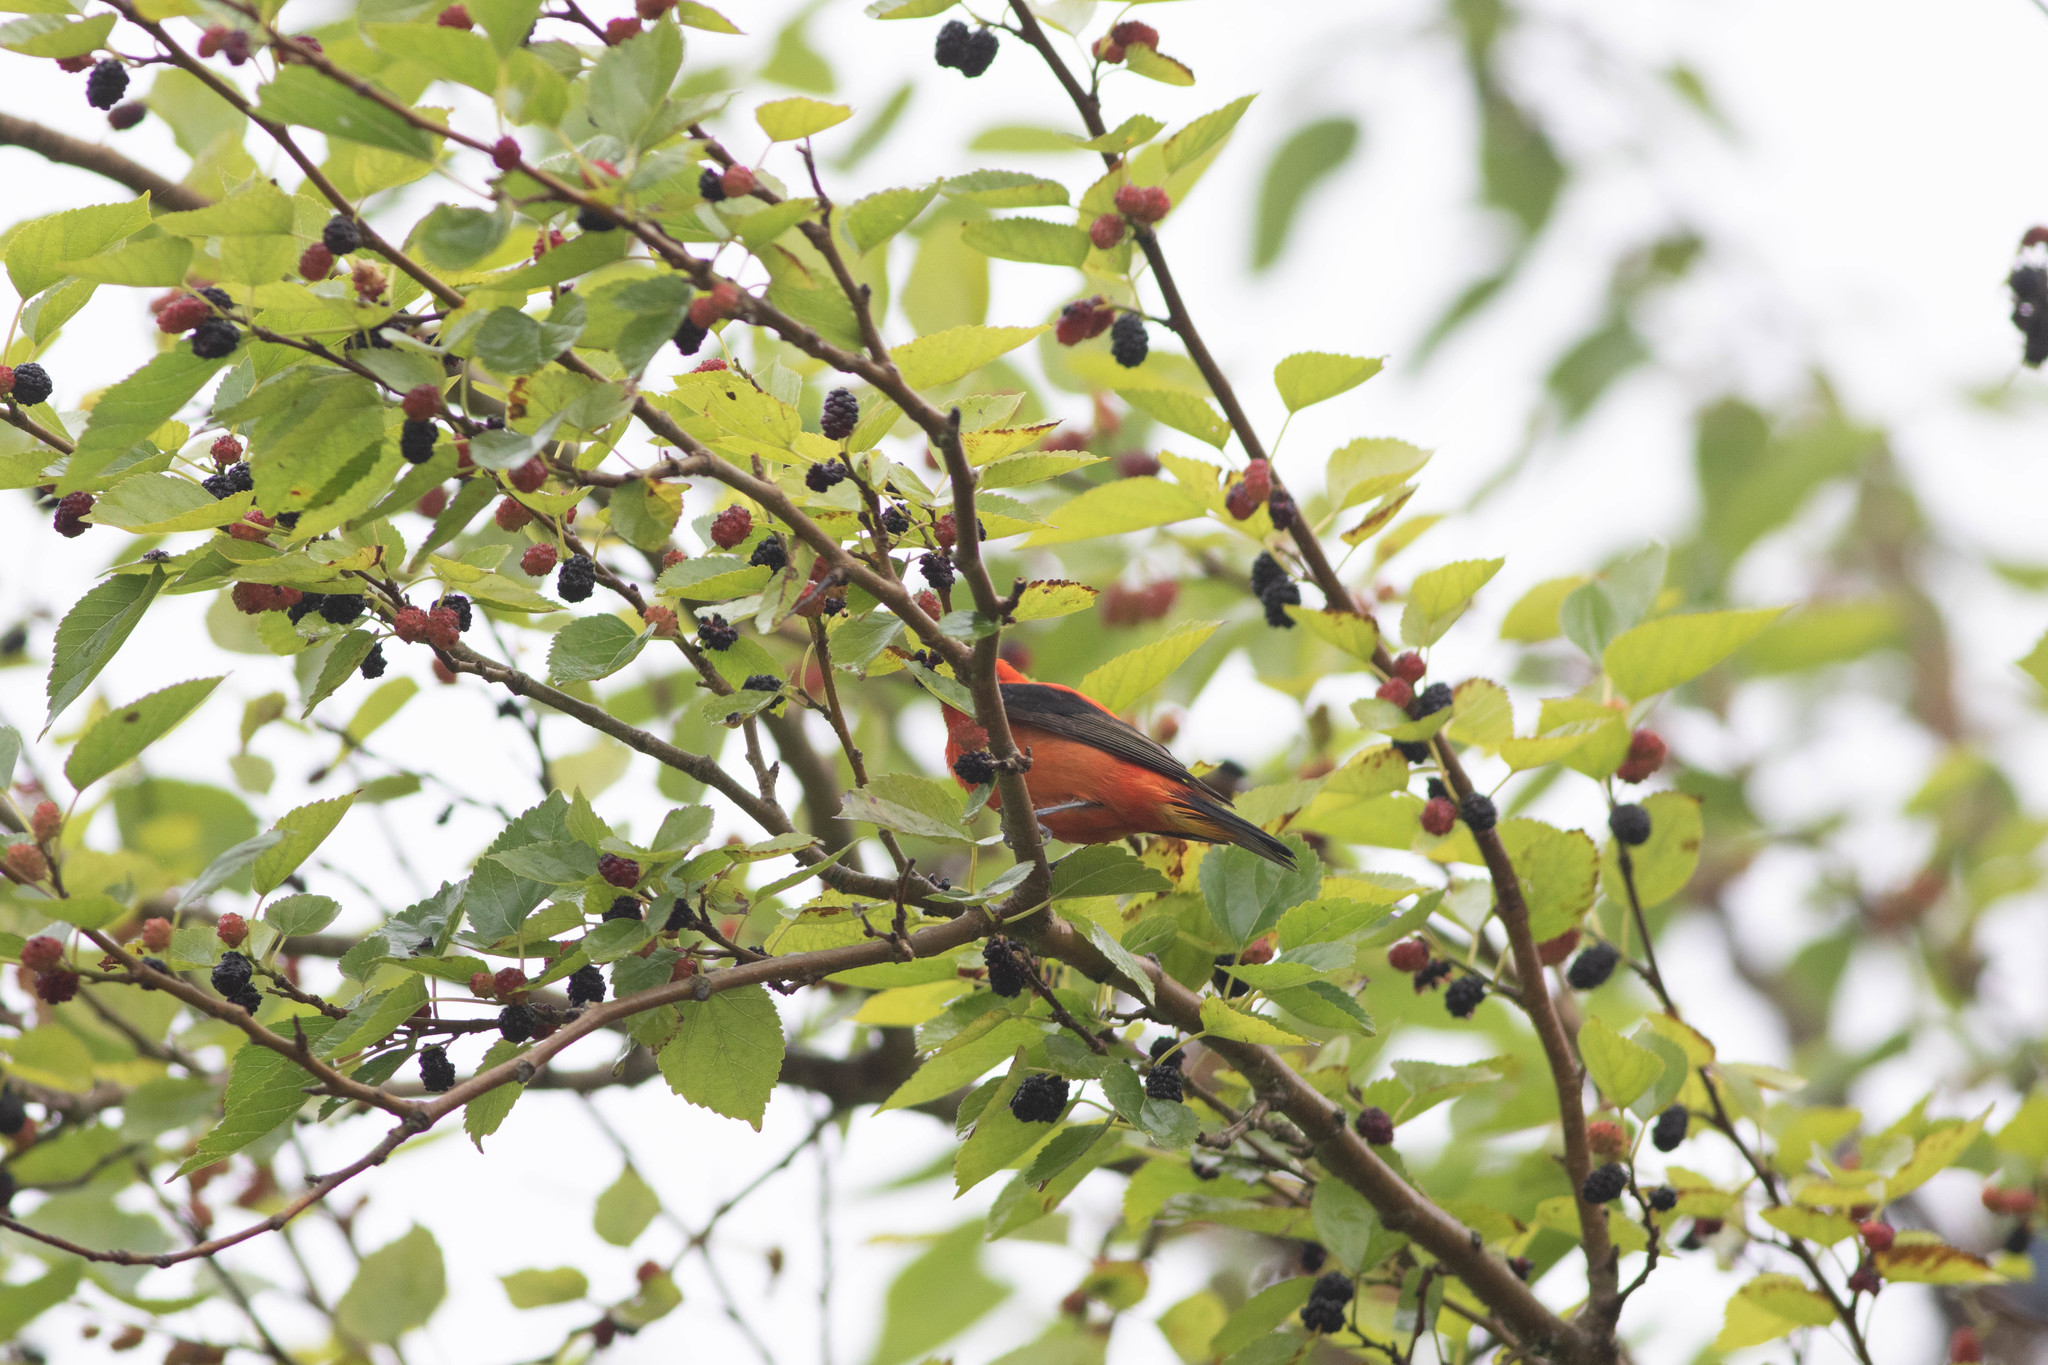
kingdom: Animalia
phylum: Chordata
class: Aves
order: Passeriformes
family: Cardinalidae
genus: Piranga
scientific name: Piranga olivacea
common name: Scarlet tanager
